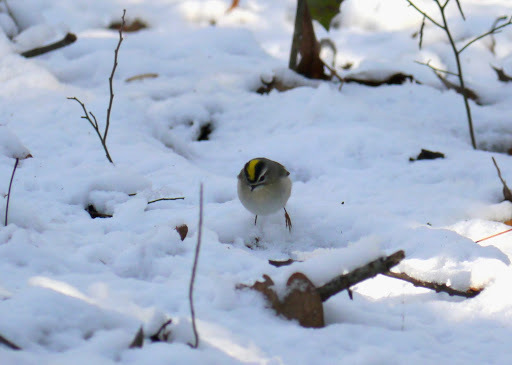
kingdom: Animalia
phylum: Chordata
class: Aves
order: Passeriformes
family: Regulidae
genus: Regulus
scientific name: Regulus satrapa
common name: Golden-crowned kinglet
